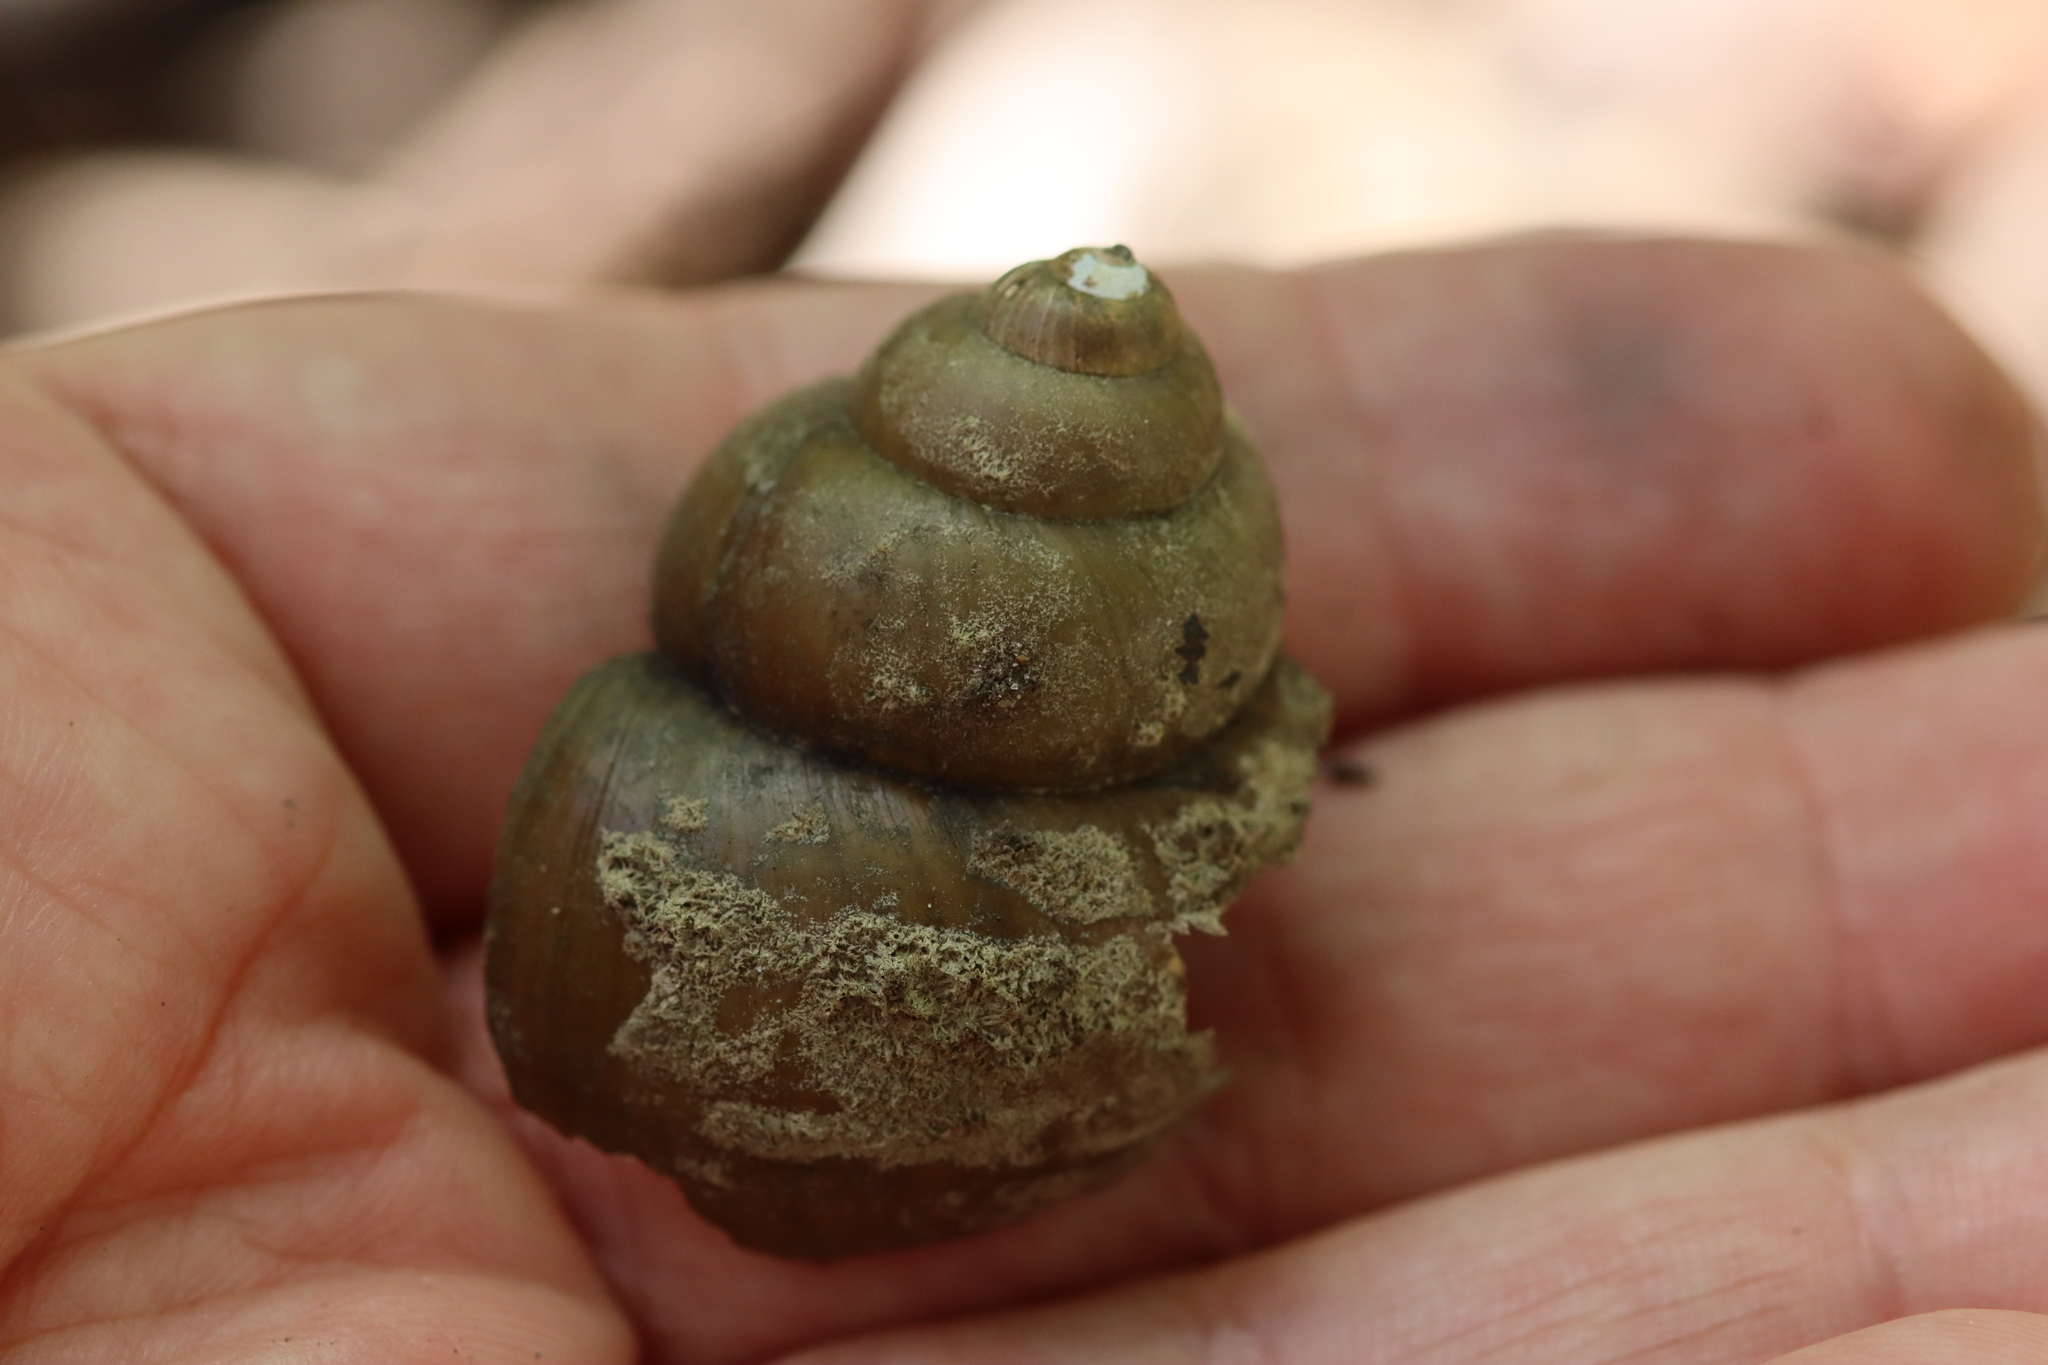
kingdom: Animalia
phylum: Mollusca
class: Gastropoda
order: Architaenioglossa
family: Viviparidae
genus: Cipangopaludina
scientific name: Cipangopaludina chinensis
